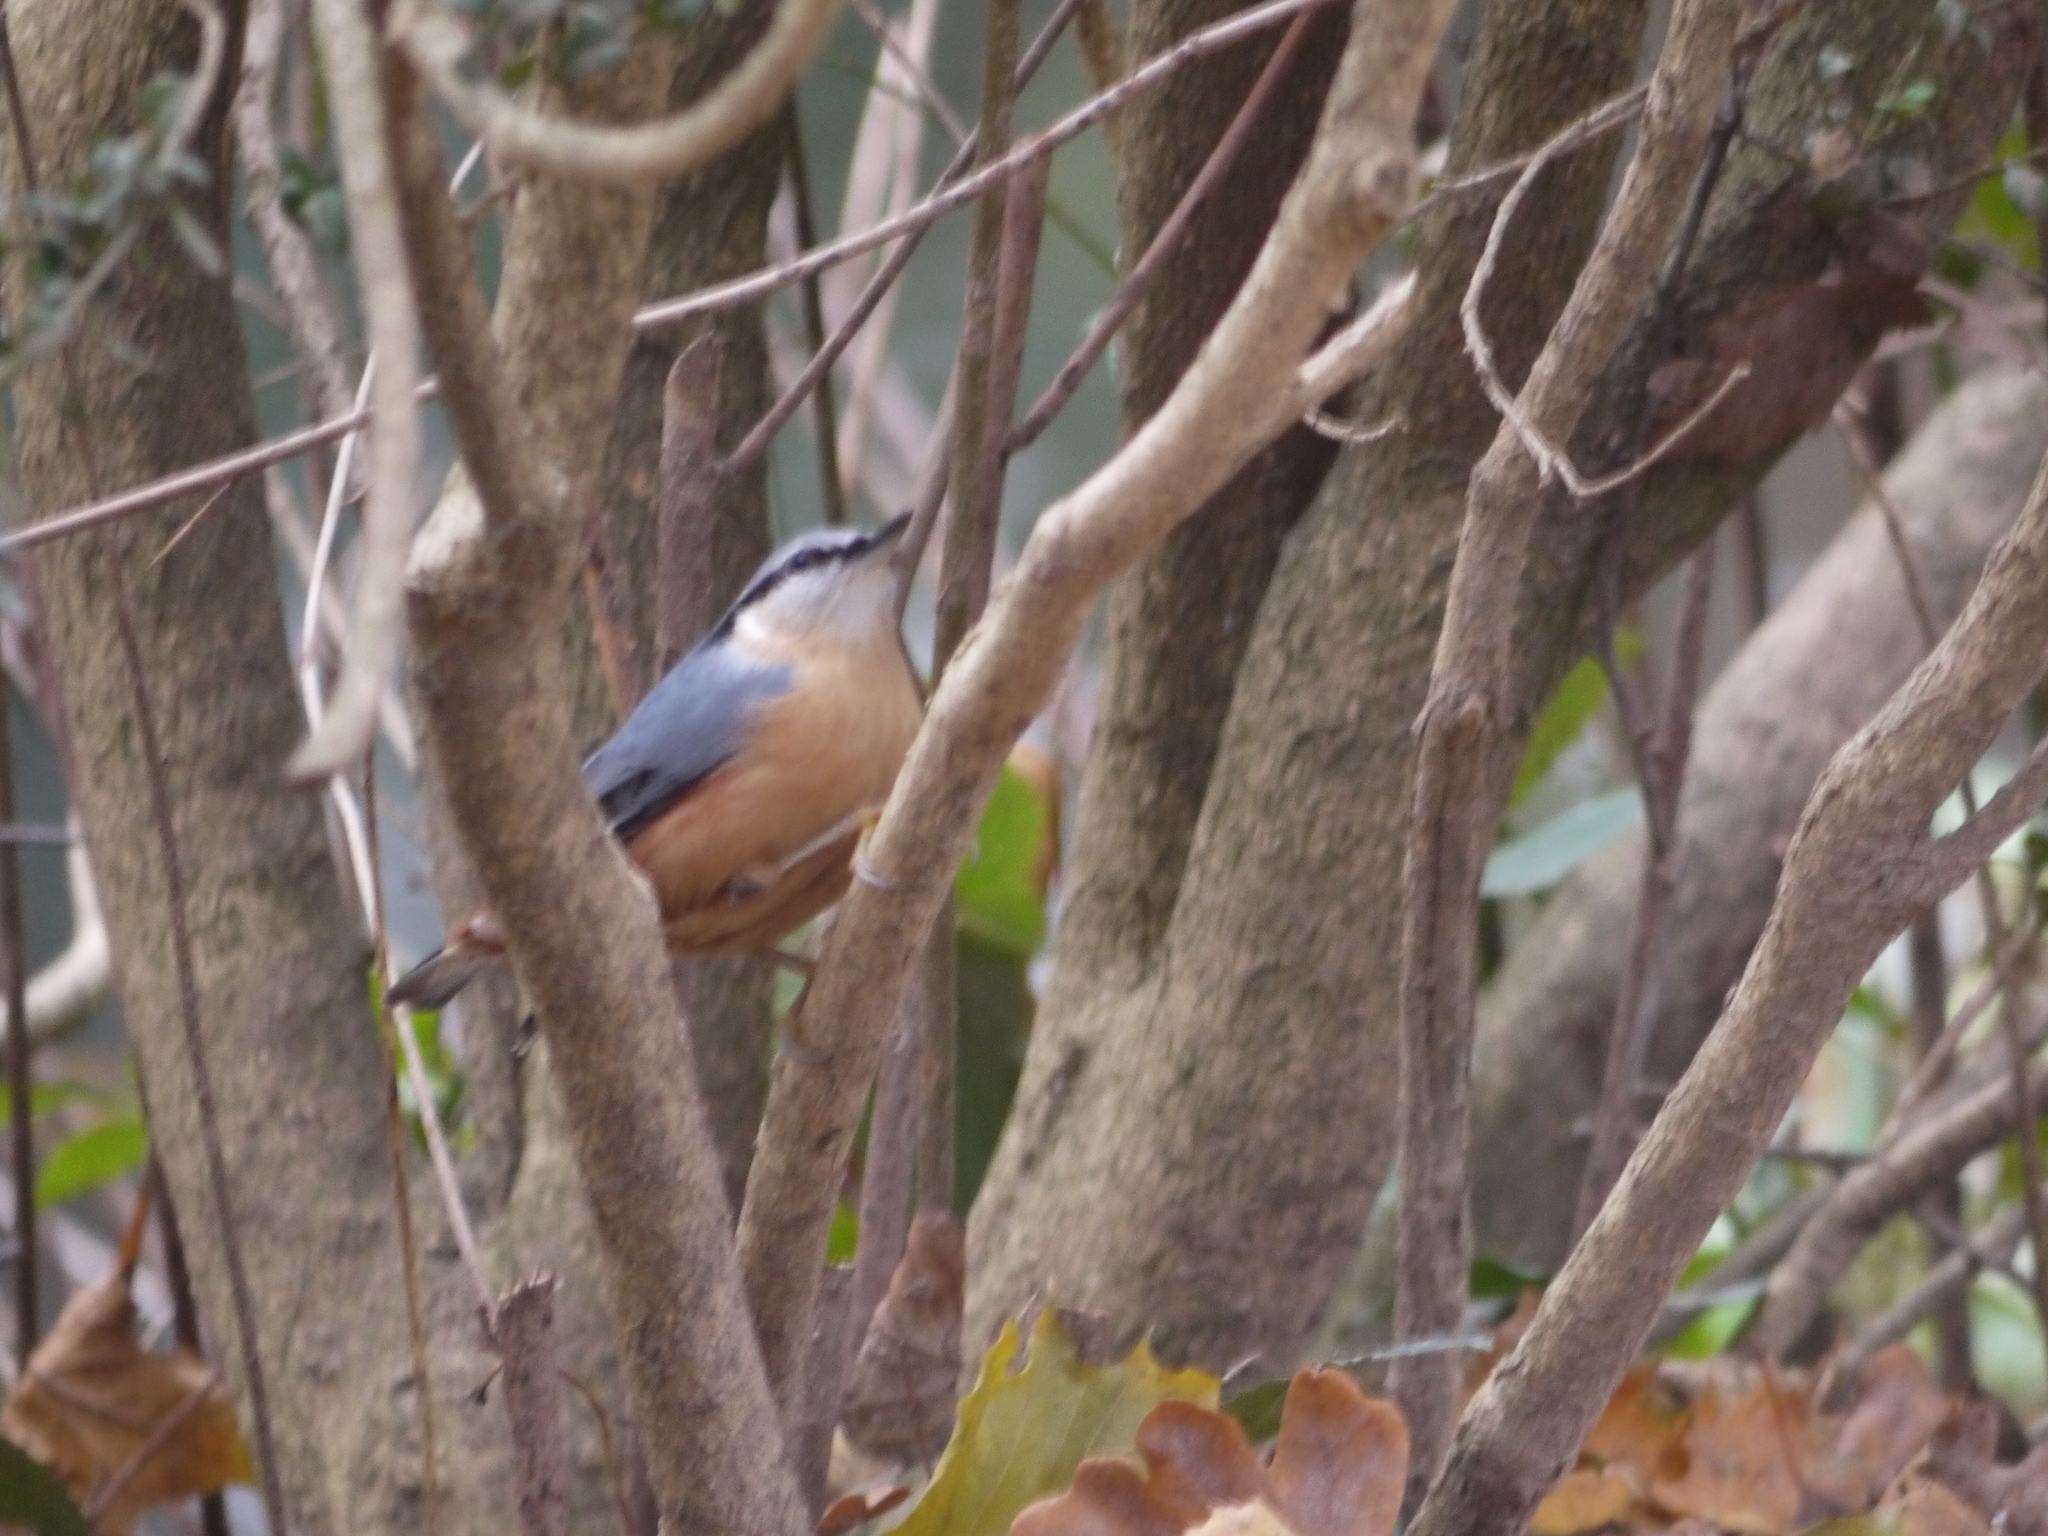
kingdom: Animalia
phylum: Chordata
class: Aves
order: Passeriformes
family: Sittidae
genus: Sitta
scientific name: Sitta europaea
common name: Eurasian nuthatch
